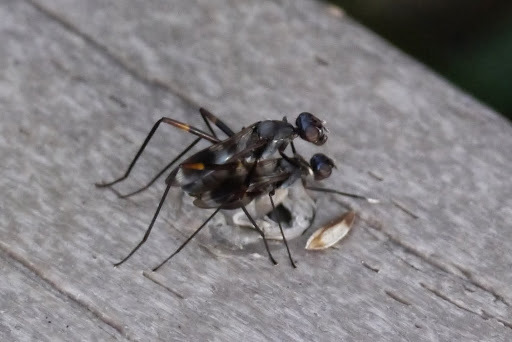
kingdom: Animalia
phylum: Arthropoda
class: Insecta
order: Diptera
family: Micropezidae
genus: Taeniaptera
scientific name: Taeniaptera trivittata
